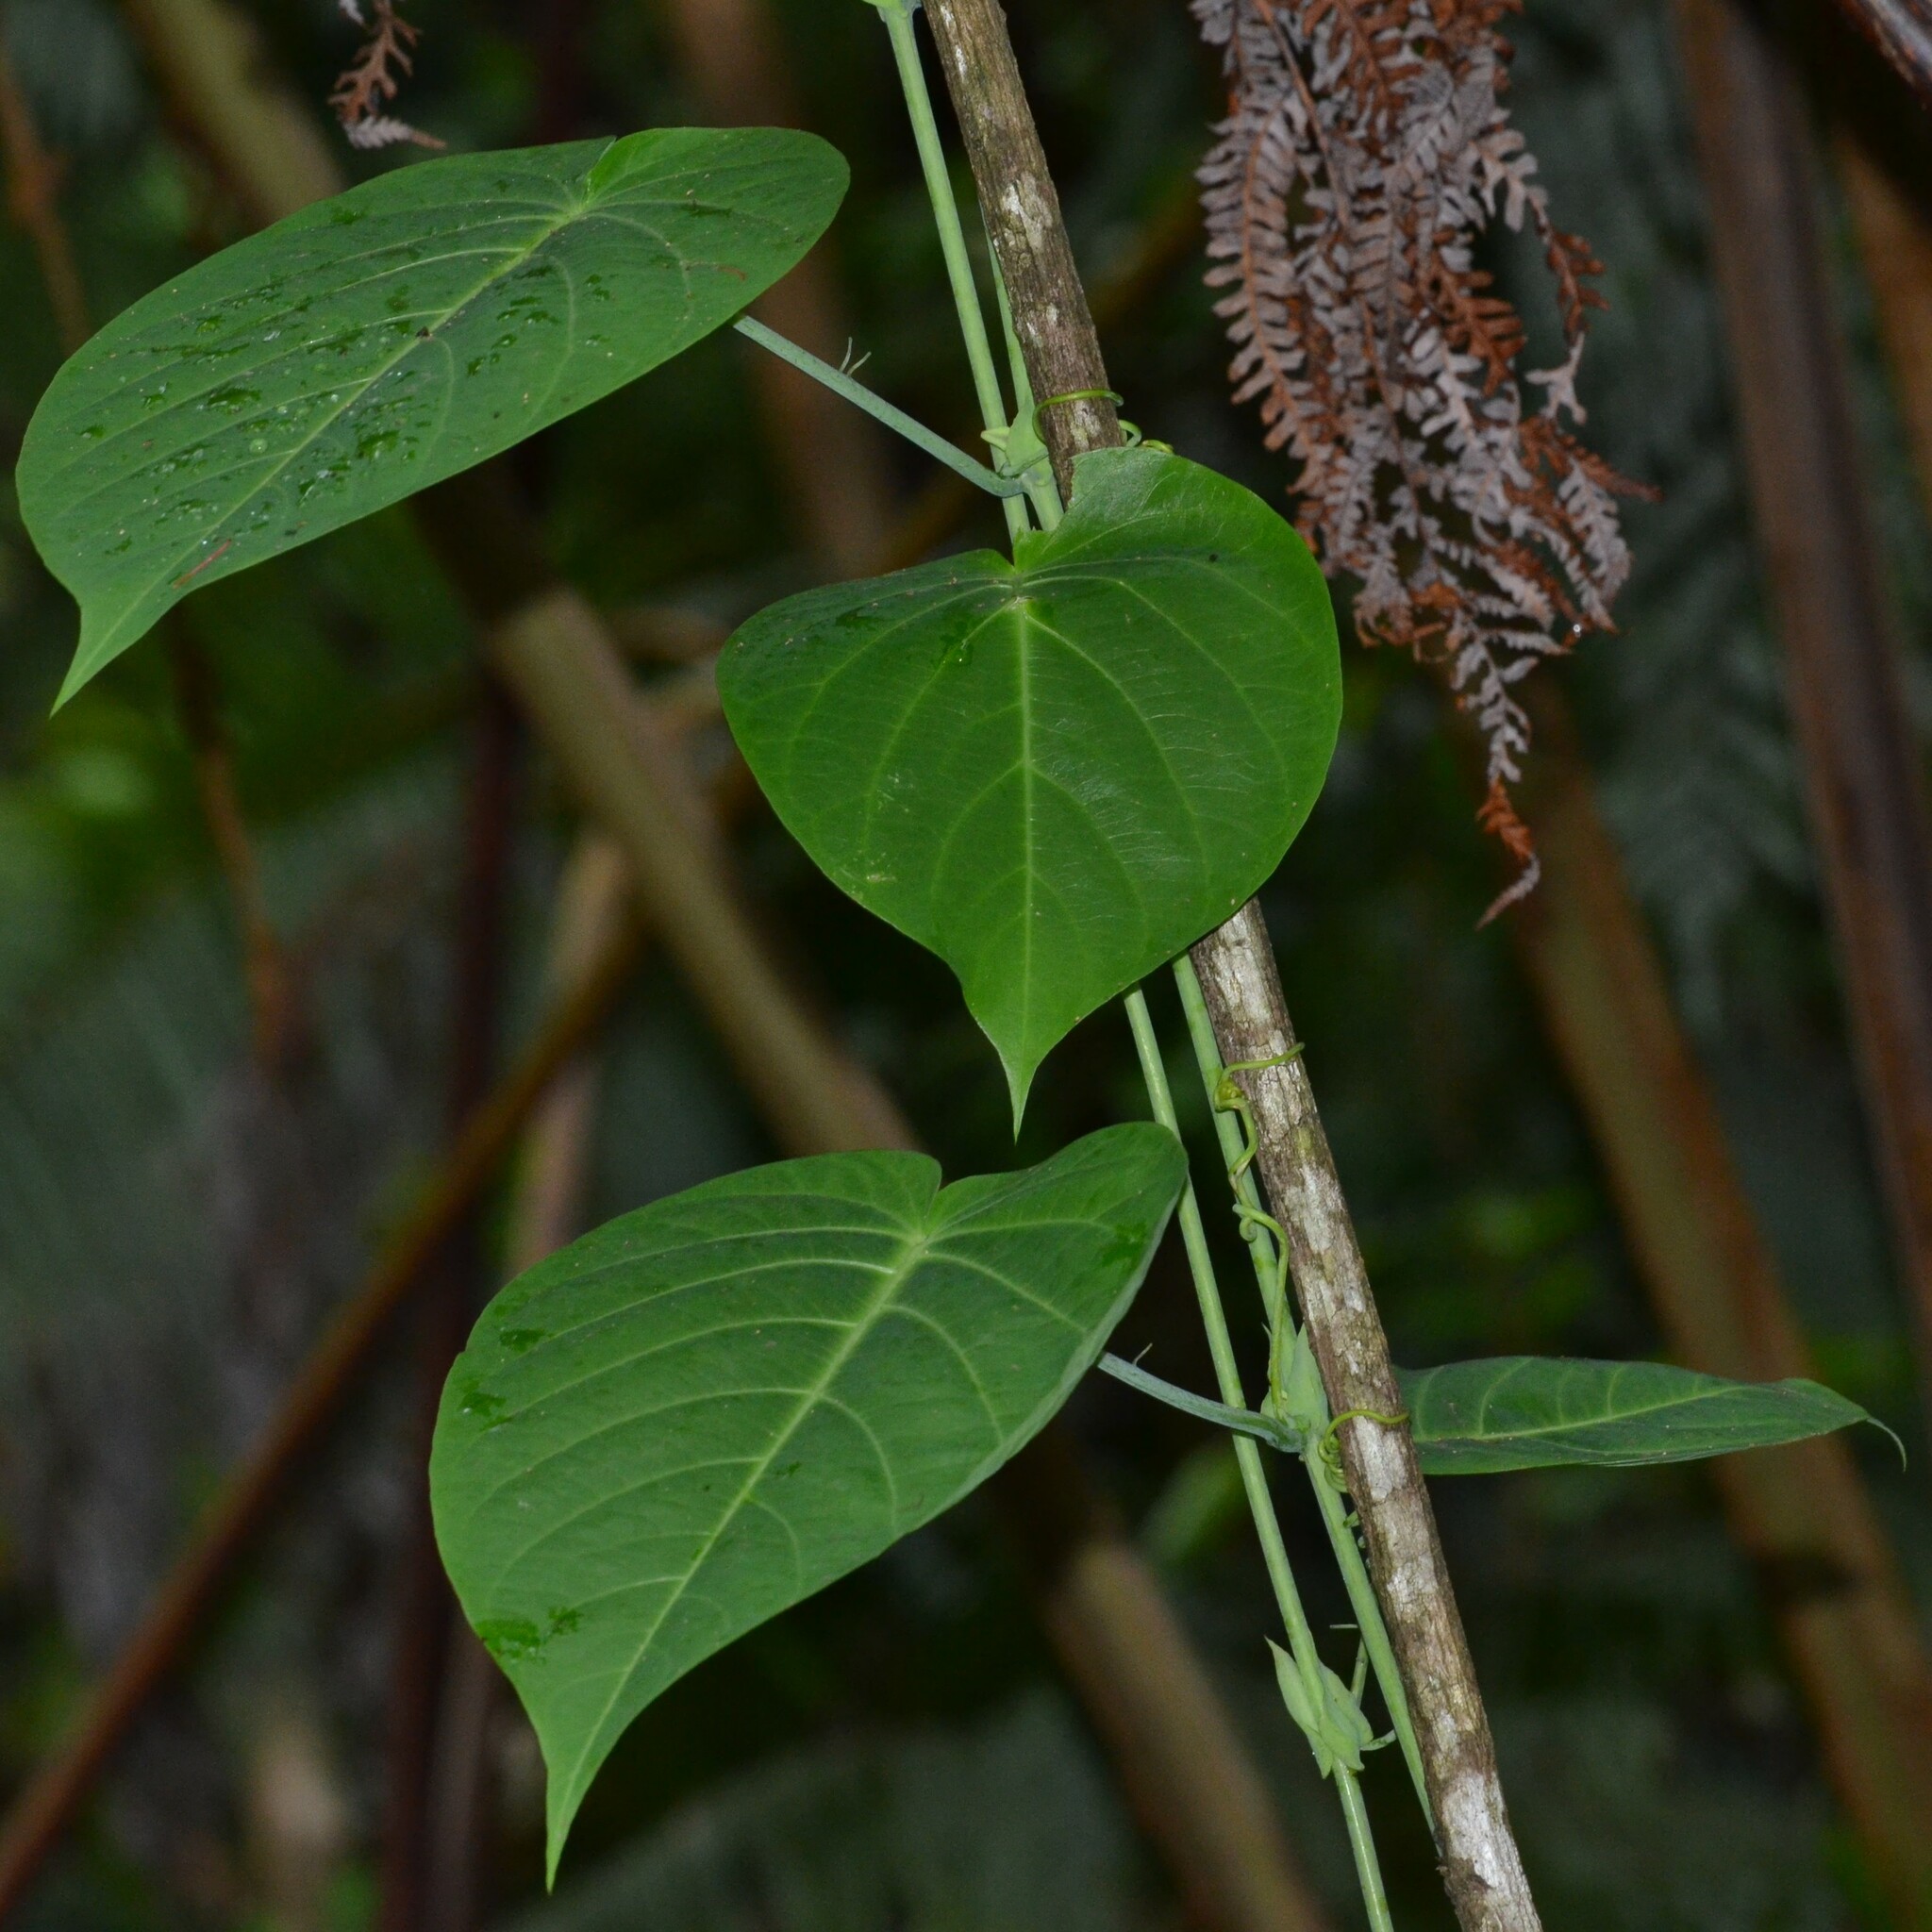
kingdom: Plantae
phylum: Tracheophyta
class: Magnoliopsida
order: Malpighiales
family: Passifloraceae
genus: Passiflora
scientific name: Passiflora ligularis
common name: Sweet granadilla
